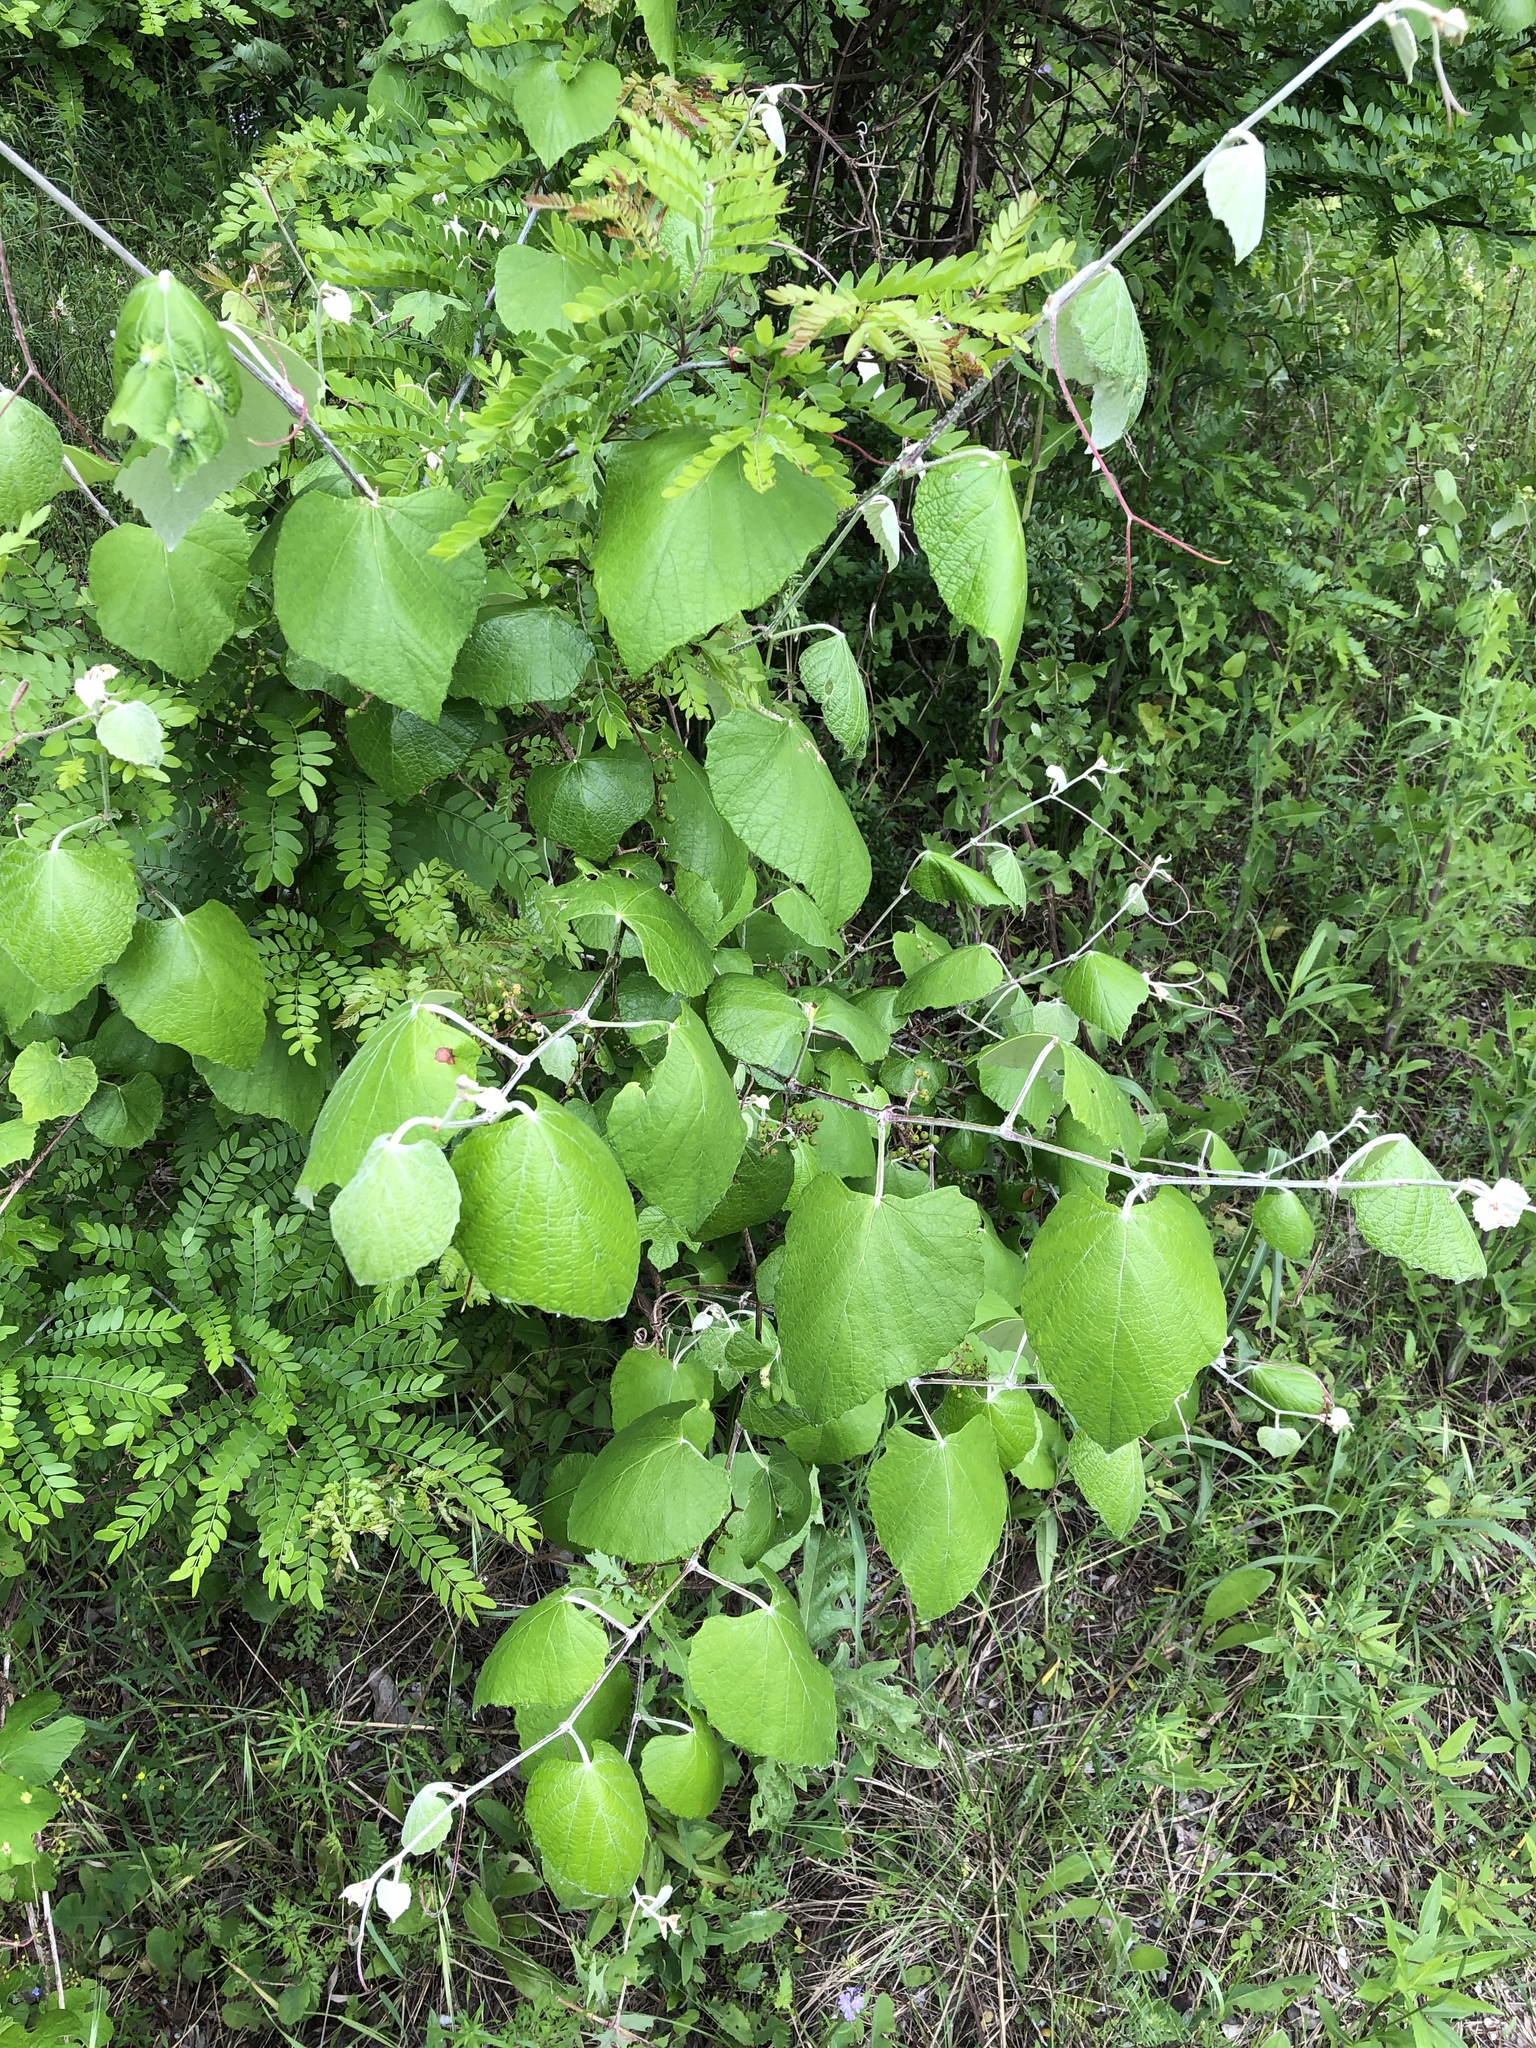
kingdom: Plantae
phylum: Tracheophyta
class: Magnoliopsida
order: Vitales
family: Vitaceae
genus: Vitis
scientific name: Vitis mustangensis
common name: Mustang grape
